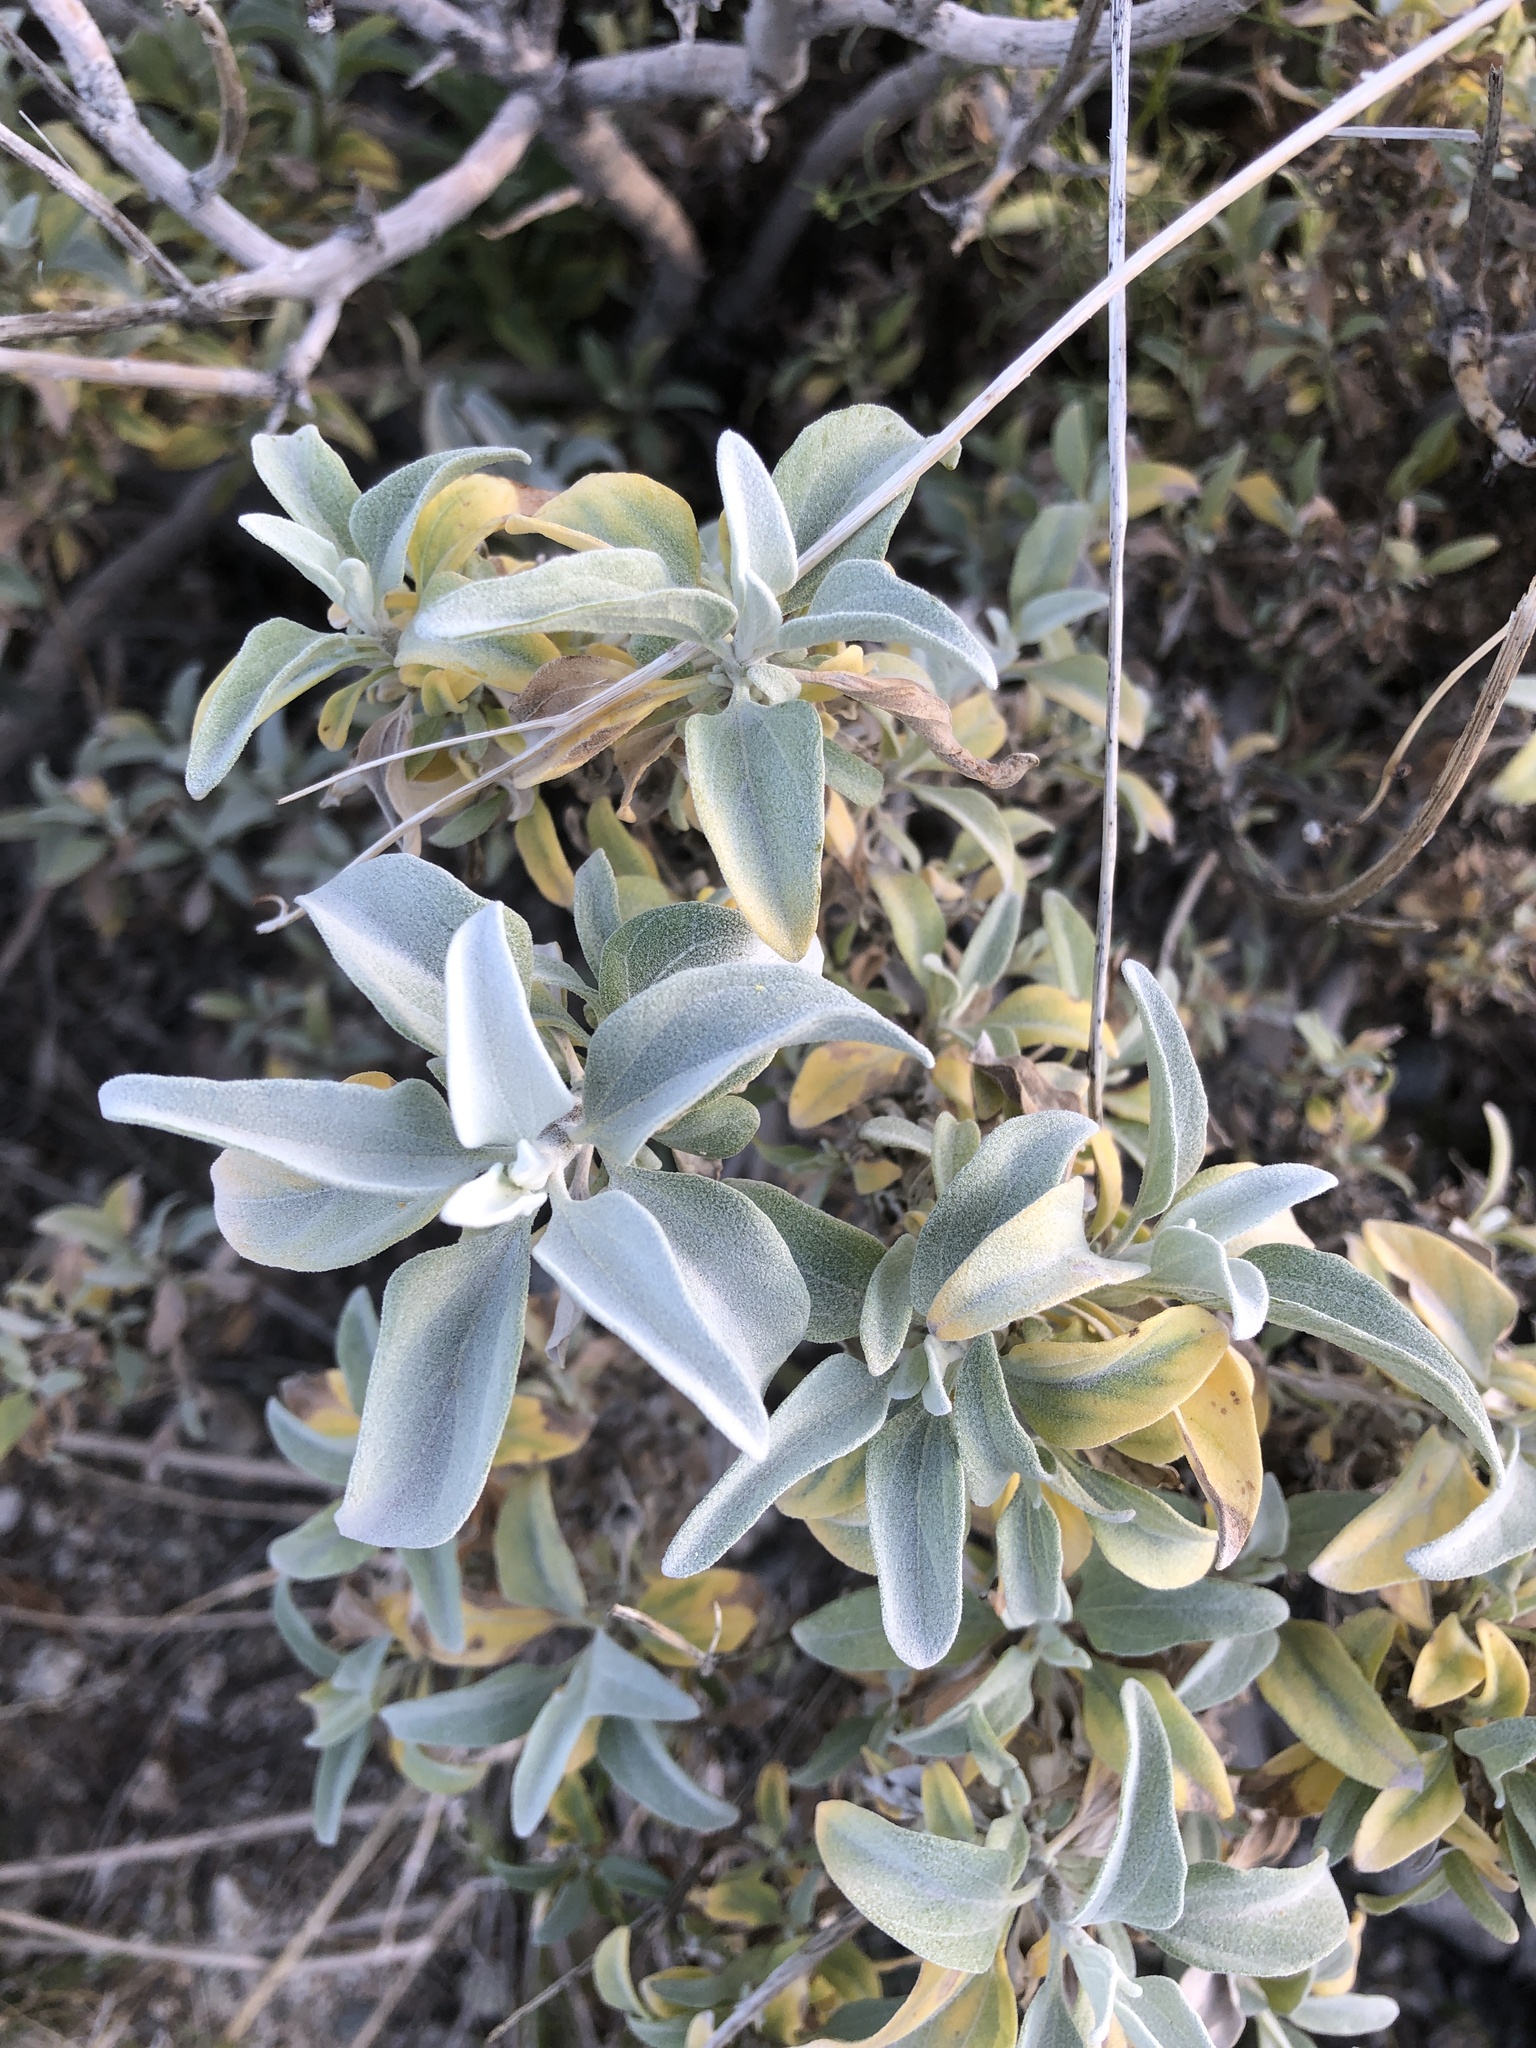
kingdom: Plantae
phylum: Tracheophyta
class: Magnoliopsida
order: Asterales
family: Asteraceae
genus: Encelia
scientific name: Encelia farinosa
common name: Brittlebush
